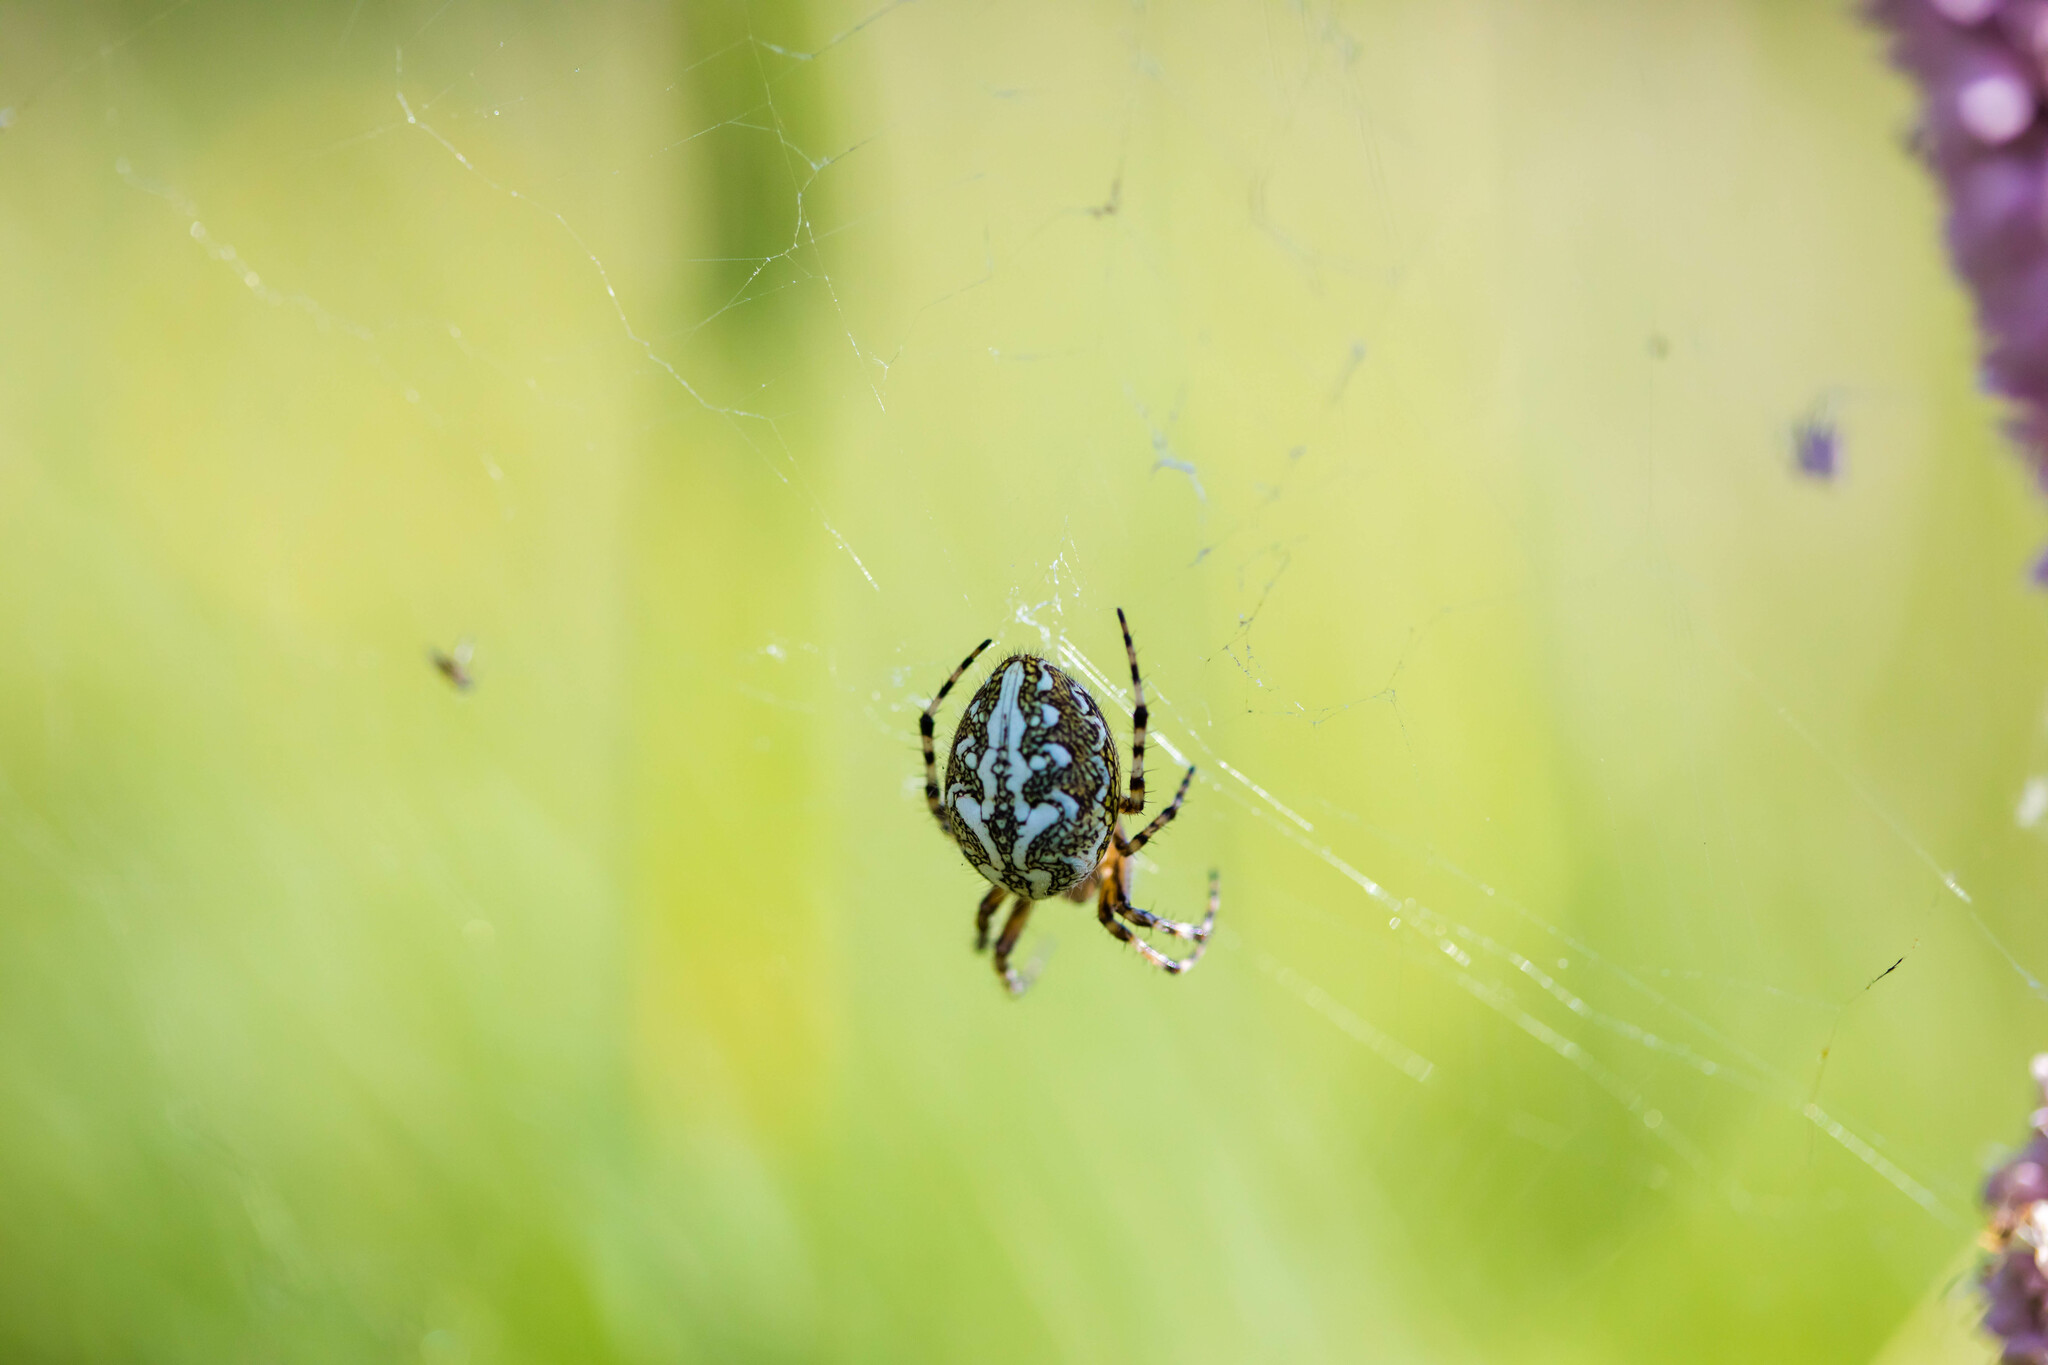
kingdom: Animalia
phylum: Arthropoda
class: Arachnida
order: Araneae
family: Araneidae
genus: Aculepeira
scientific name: Aculepeira ceropegia
